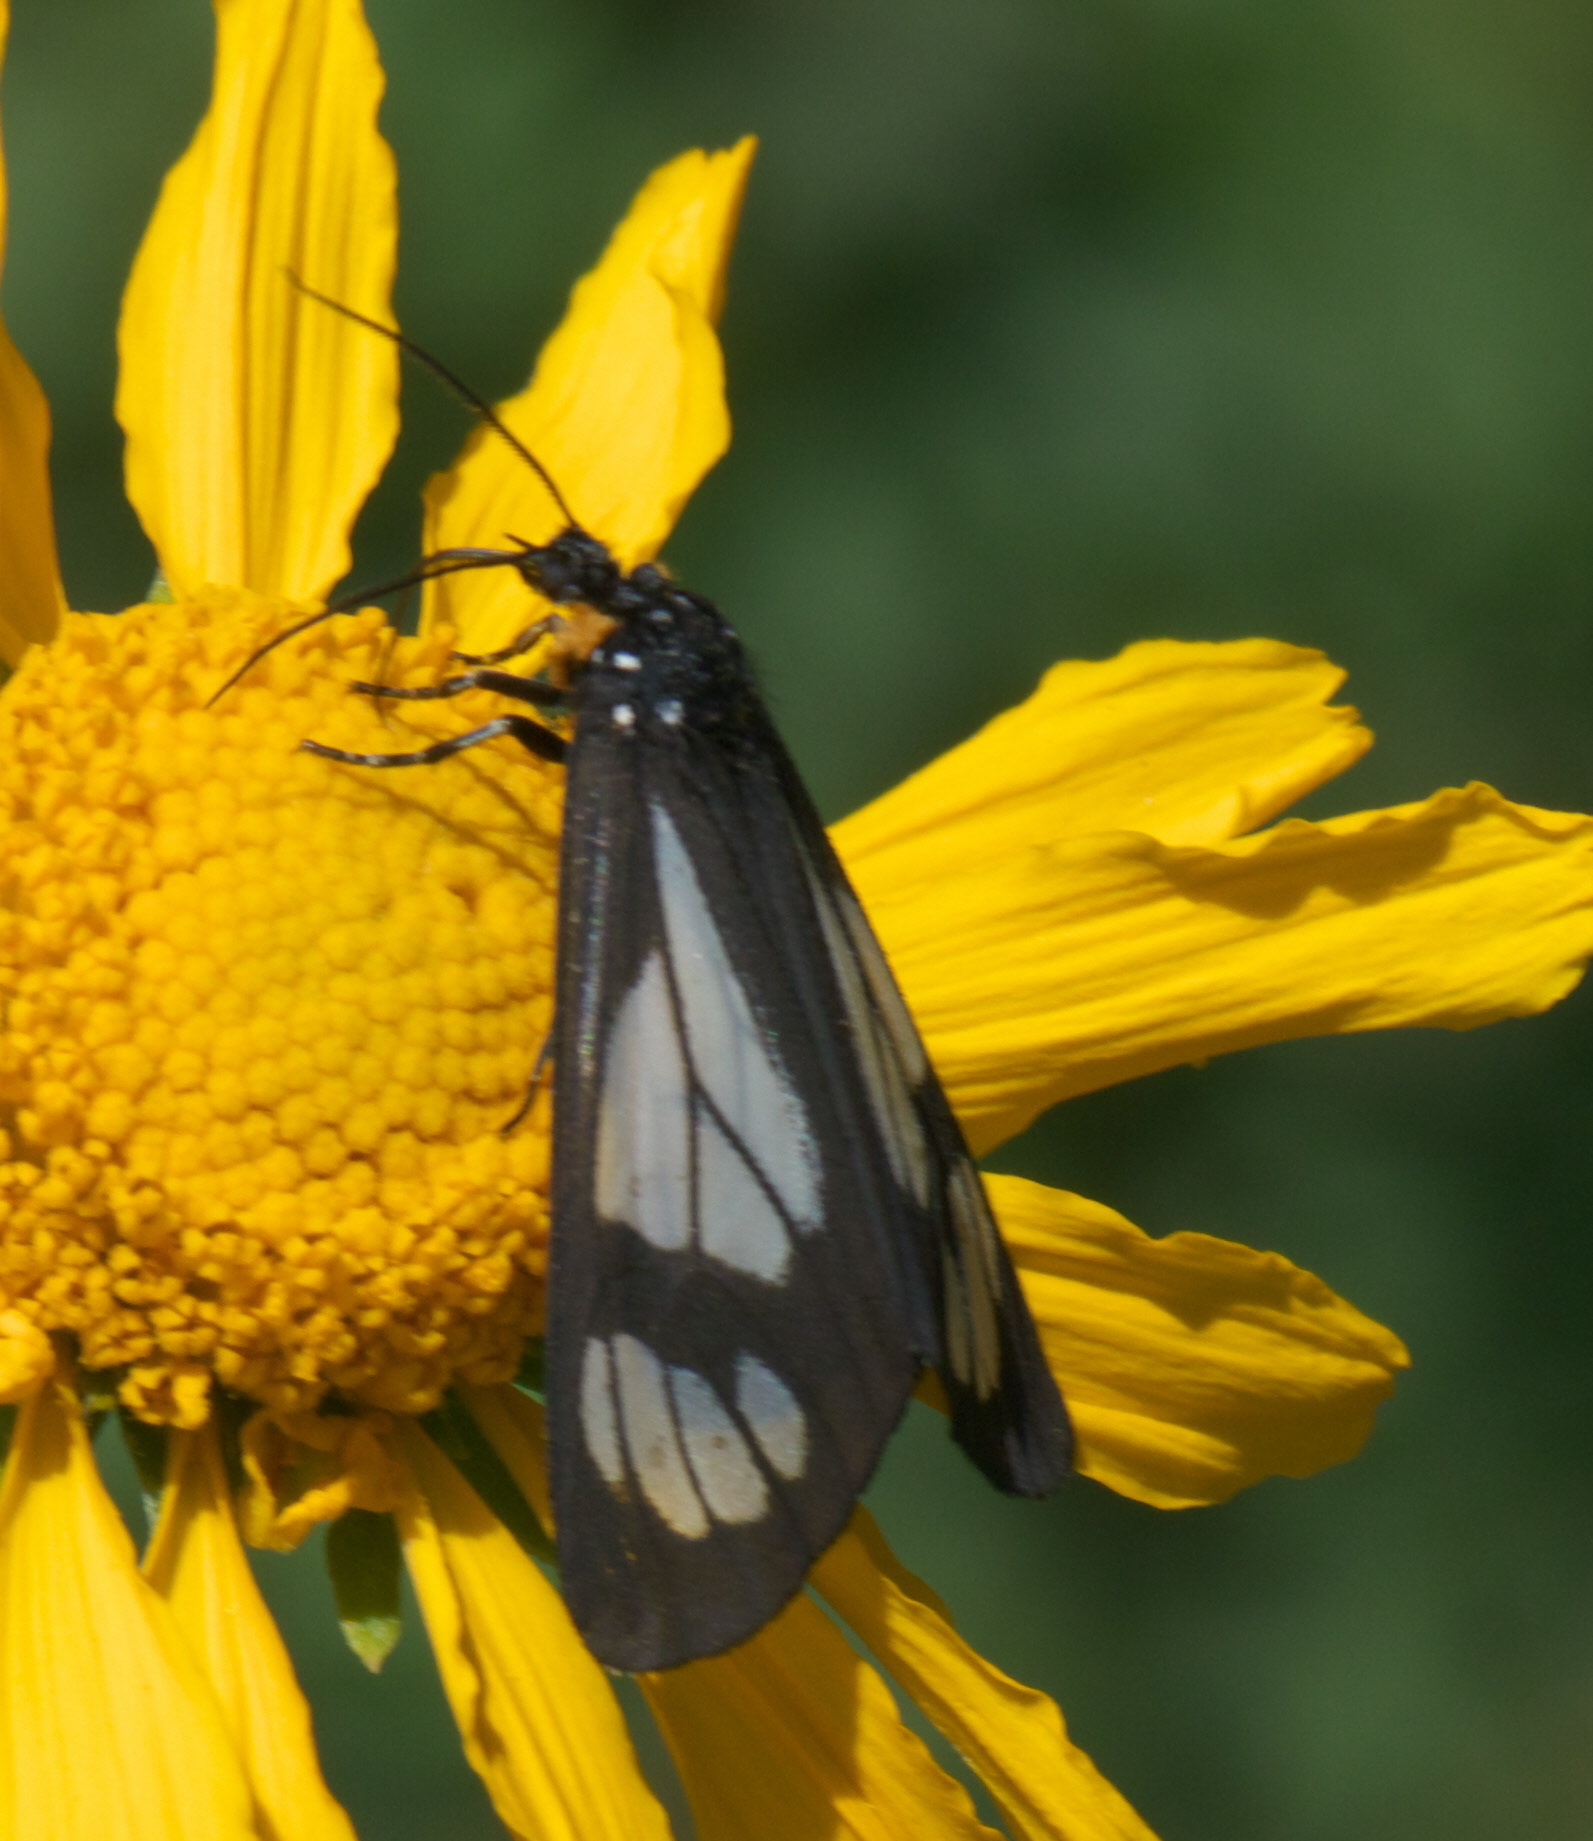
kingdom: Animalia
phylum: Arthropoda
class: Insecta
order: Lepidoptera
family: Erebidae
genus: Gnophaela
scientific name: Gnophaela vermiculata
